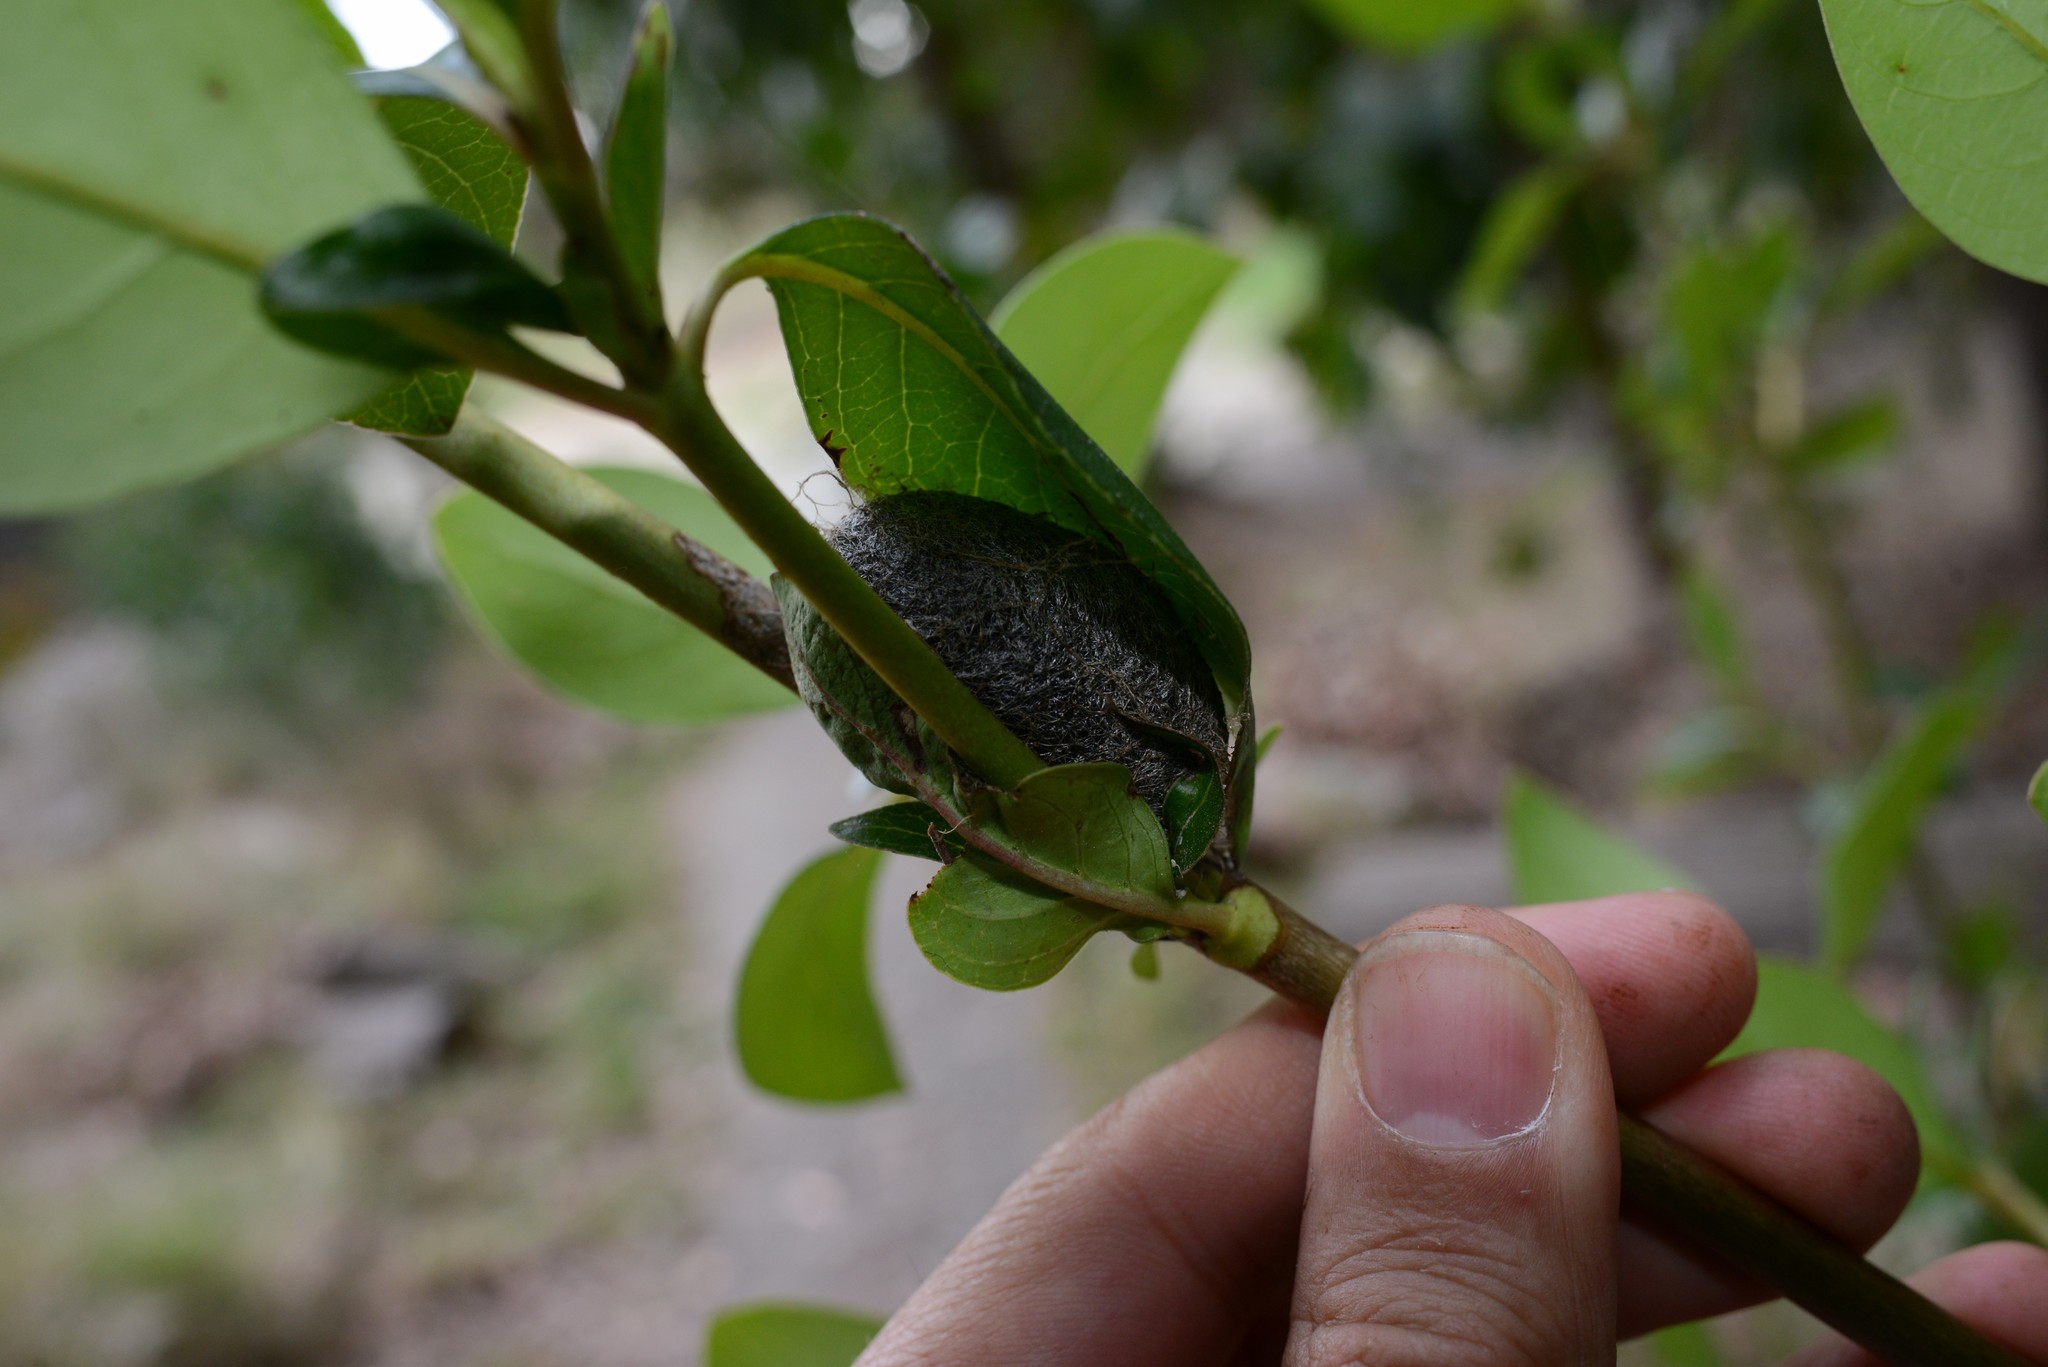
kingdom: Animalia
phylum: Arthropoda
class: Insecta
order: Lepidoptera
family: Saturniidae
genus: Opodiphthera
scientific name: Opodiphthera
